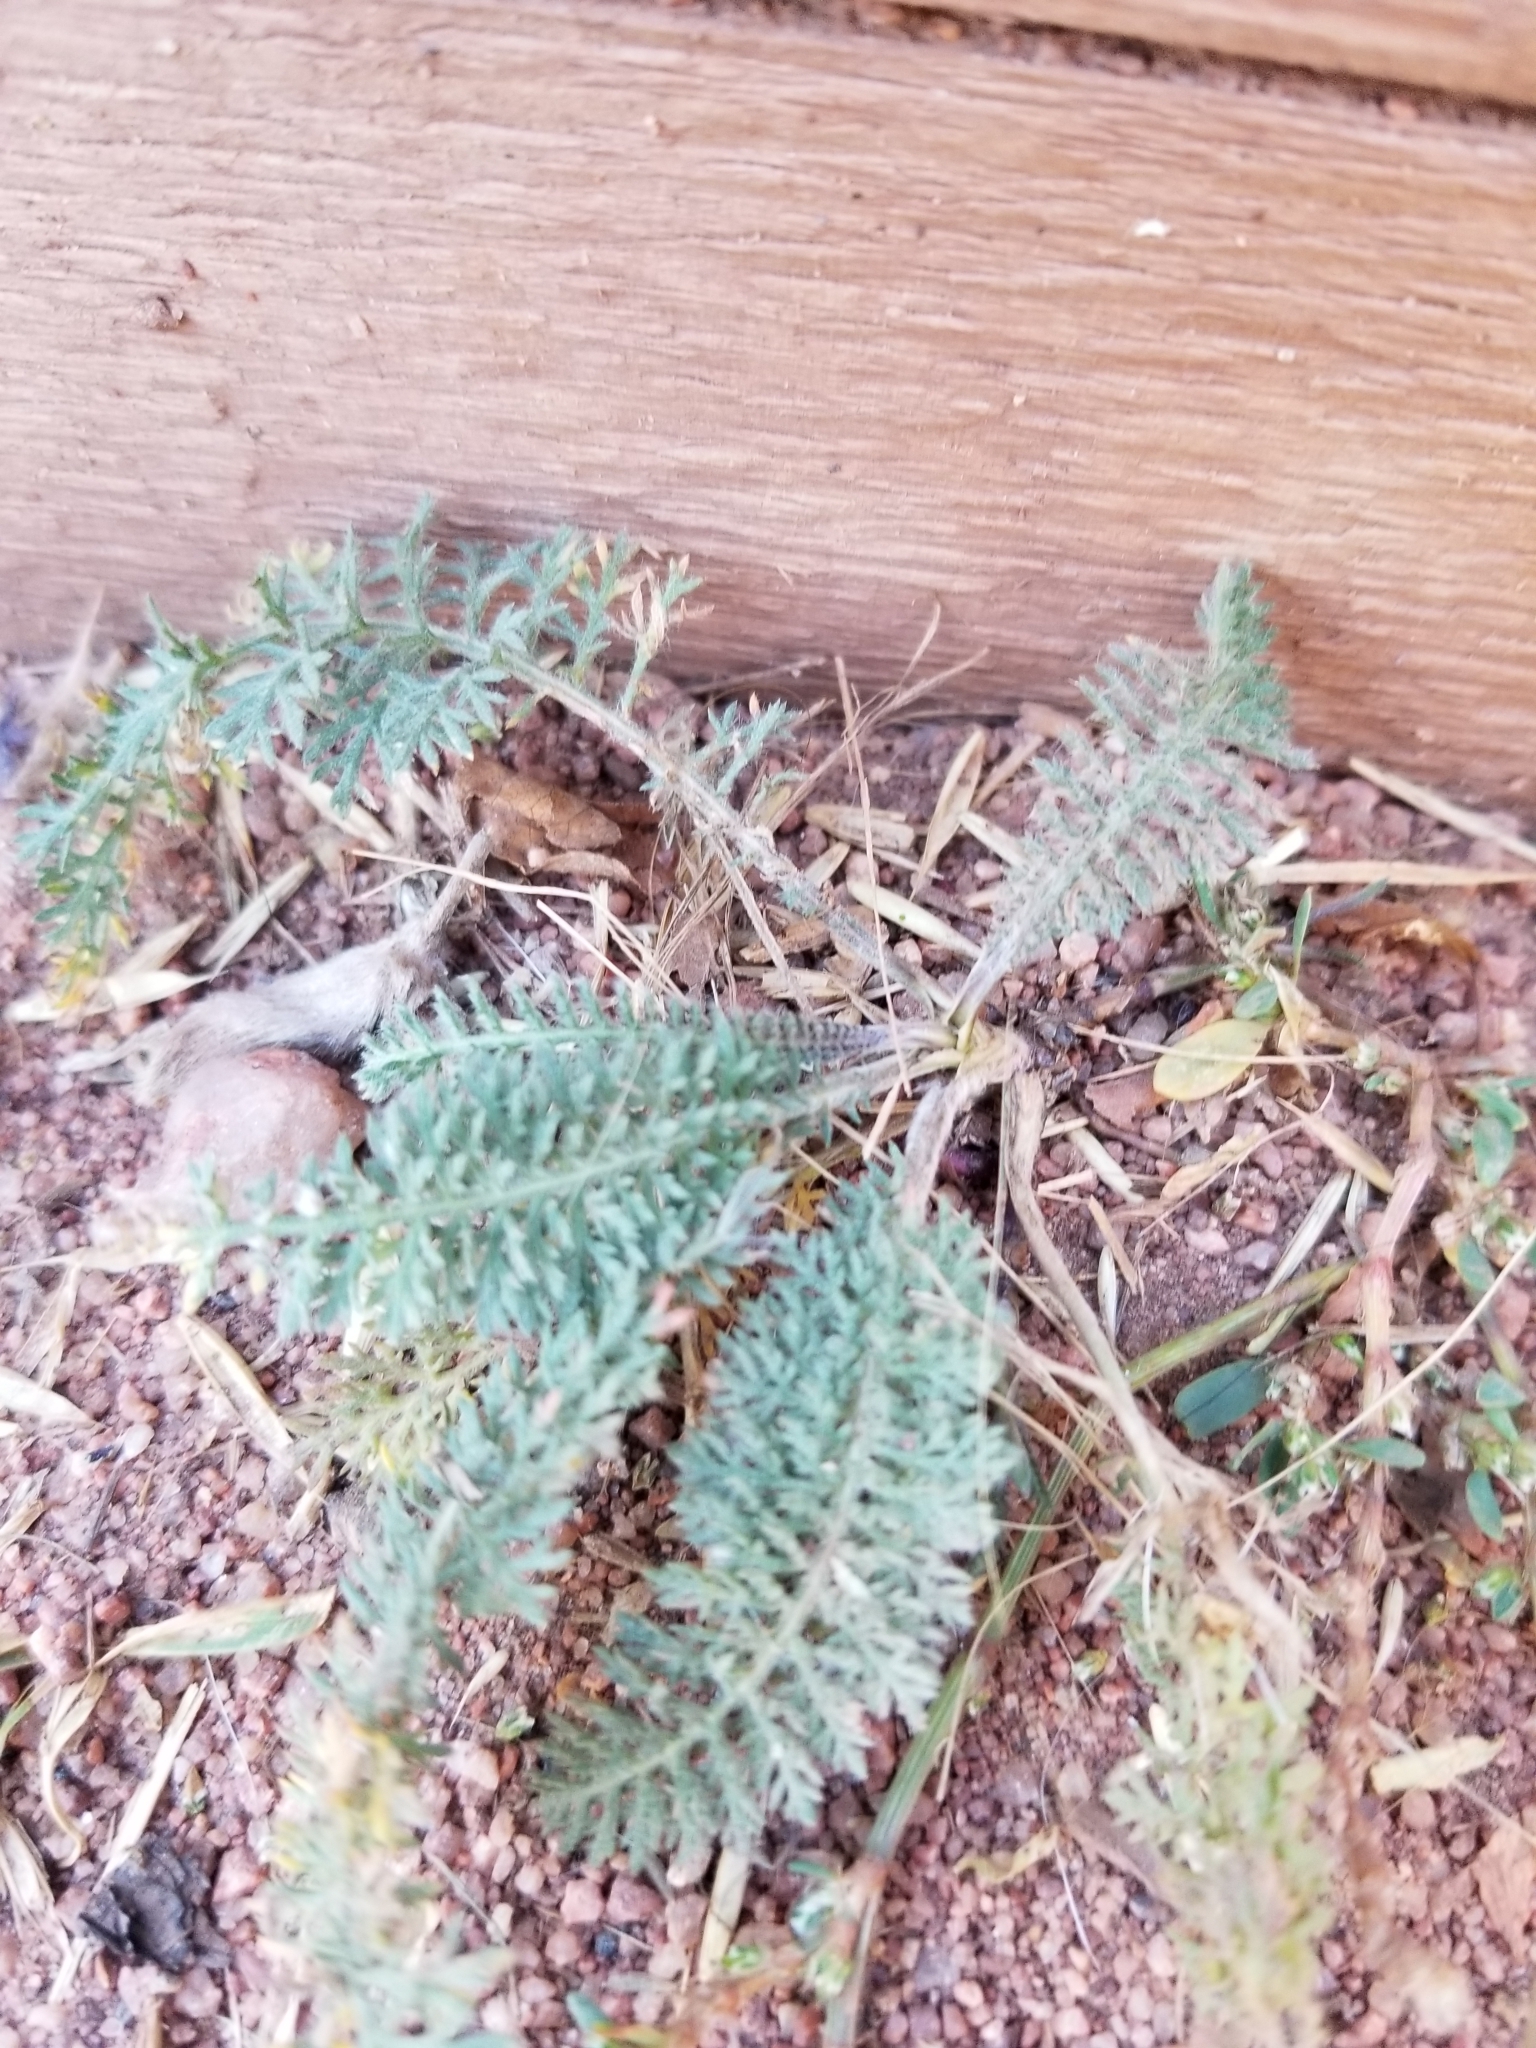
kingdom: Plantae
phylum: Tracheophyta
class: Magnoliopsida
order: Asterales
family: Asteraceae
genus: Achillea
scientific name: Achillea millefolium
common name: Yarrow
